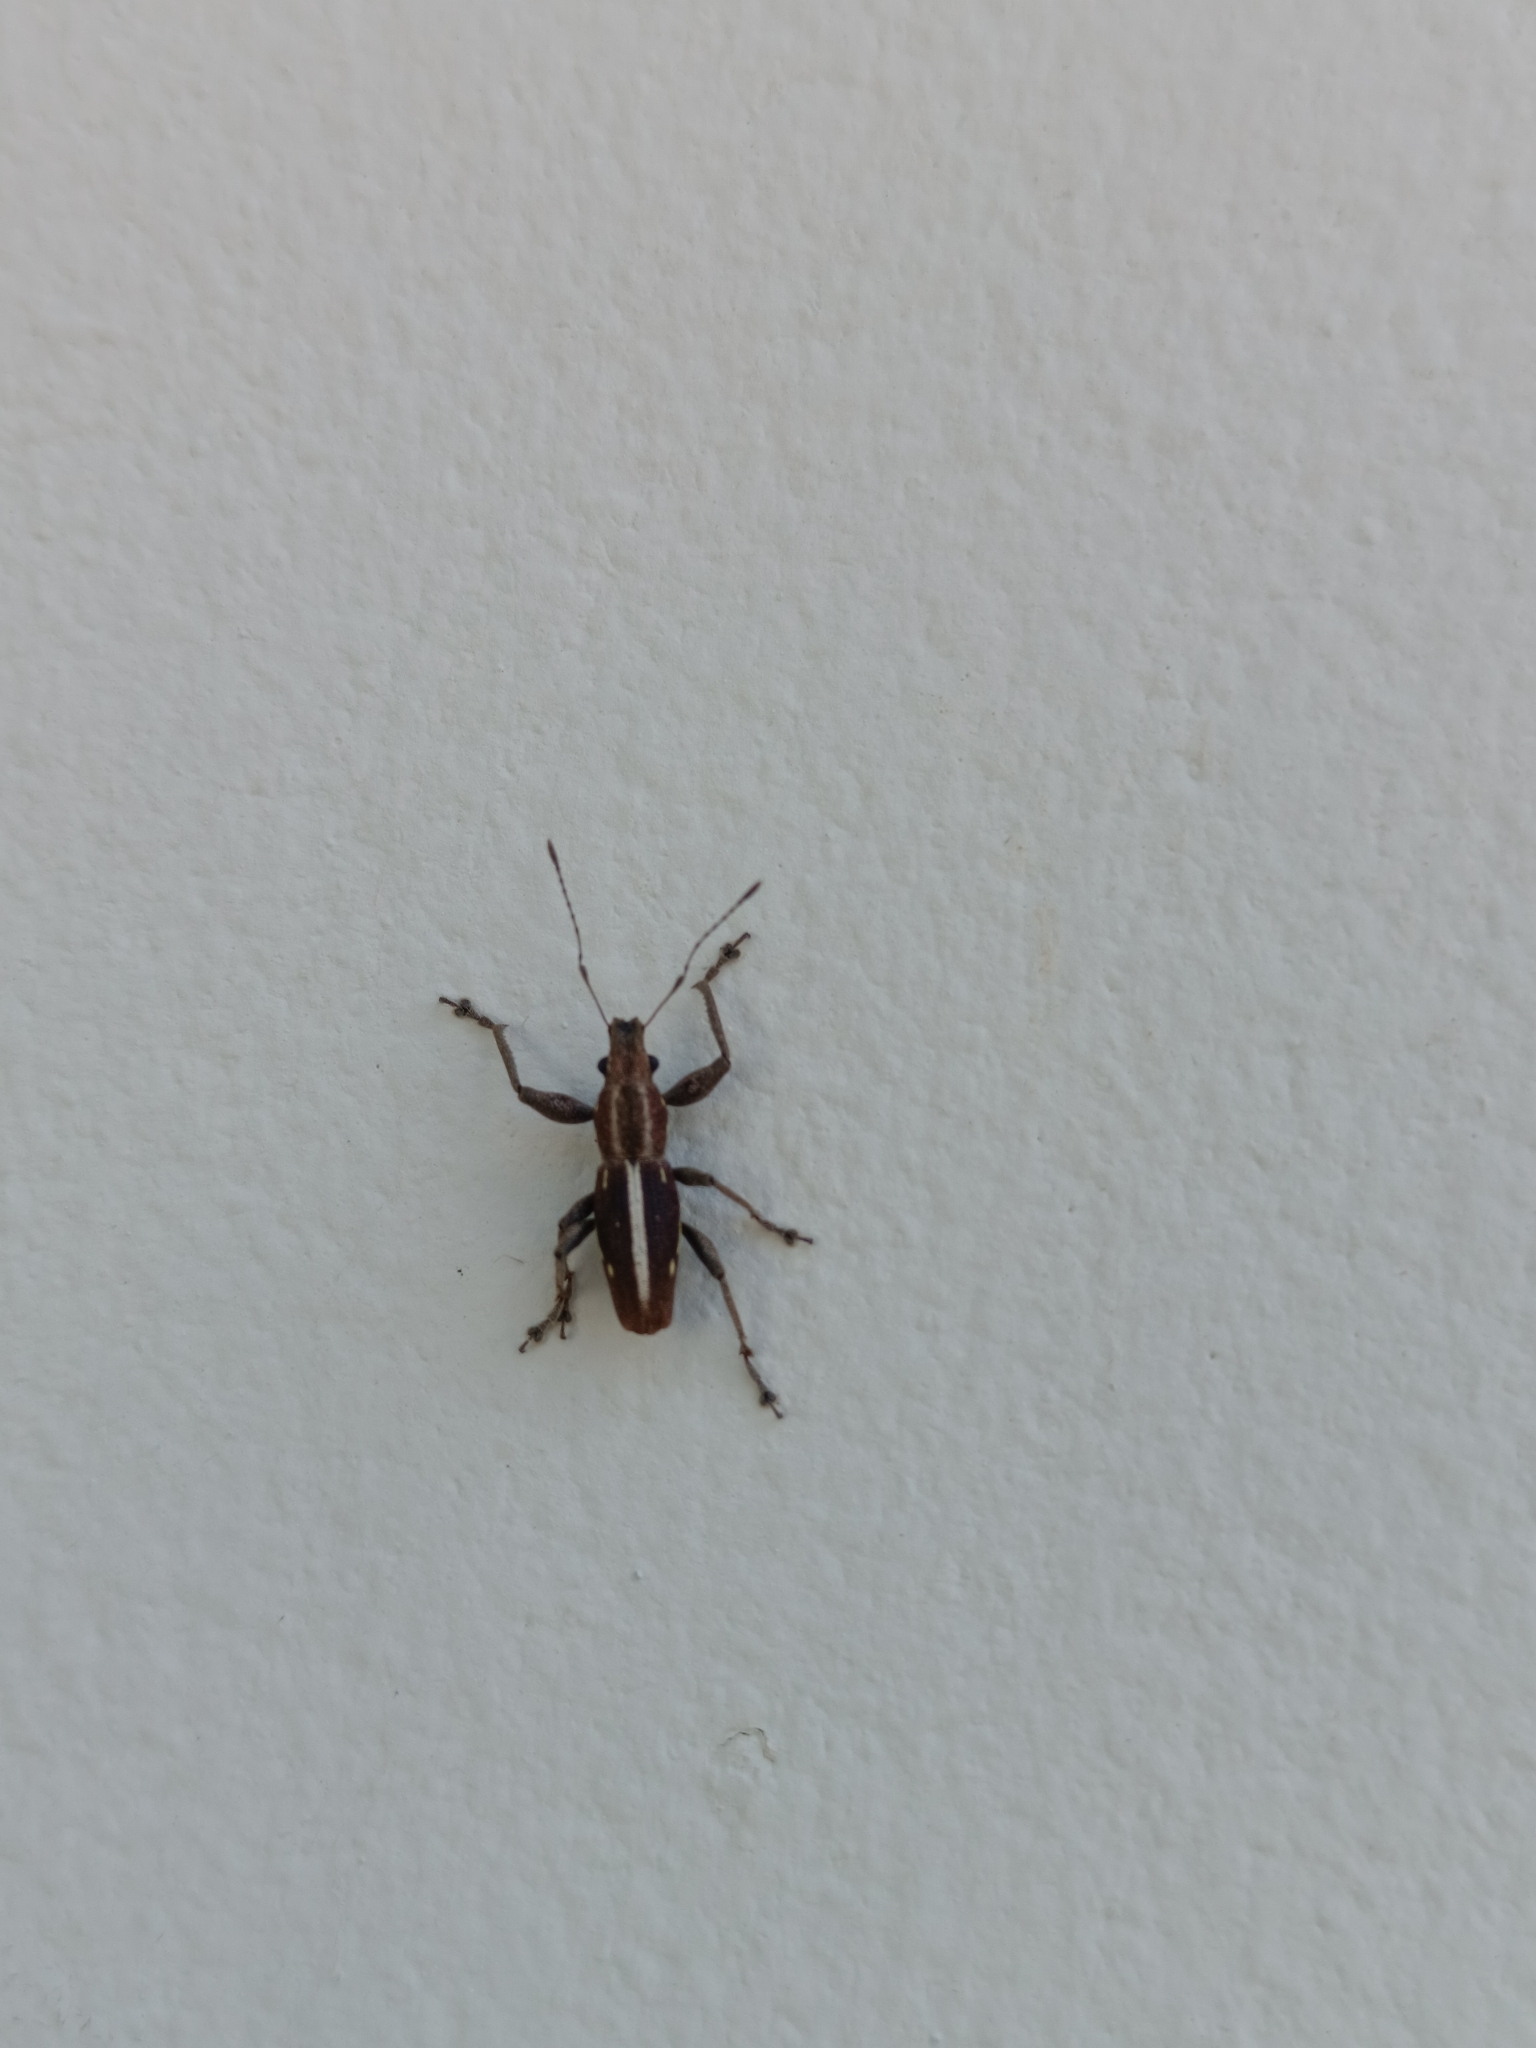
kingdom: Animalia
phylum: Arthropoda
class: Insecta
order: Coleoptera
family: Curculionidae
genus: Naupactus
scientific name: Naupactus mimicus
